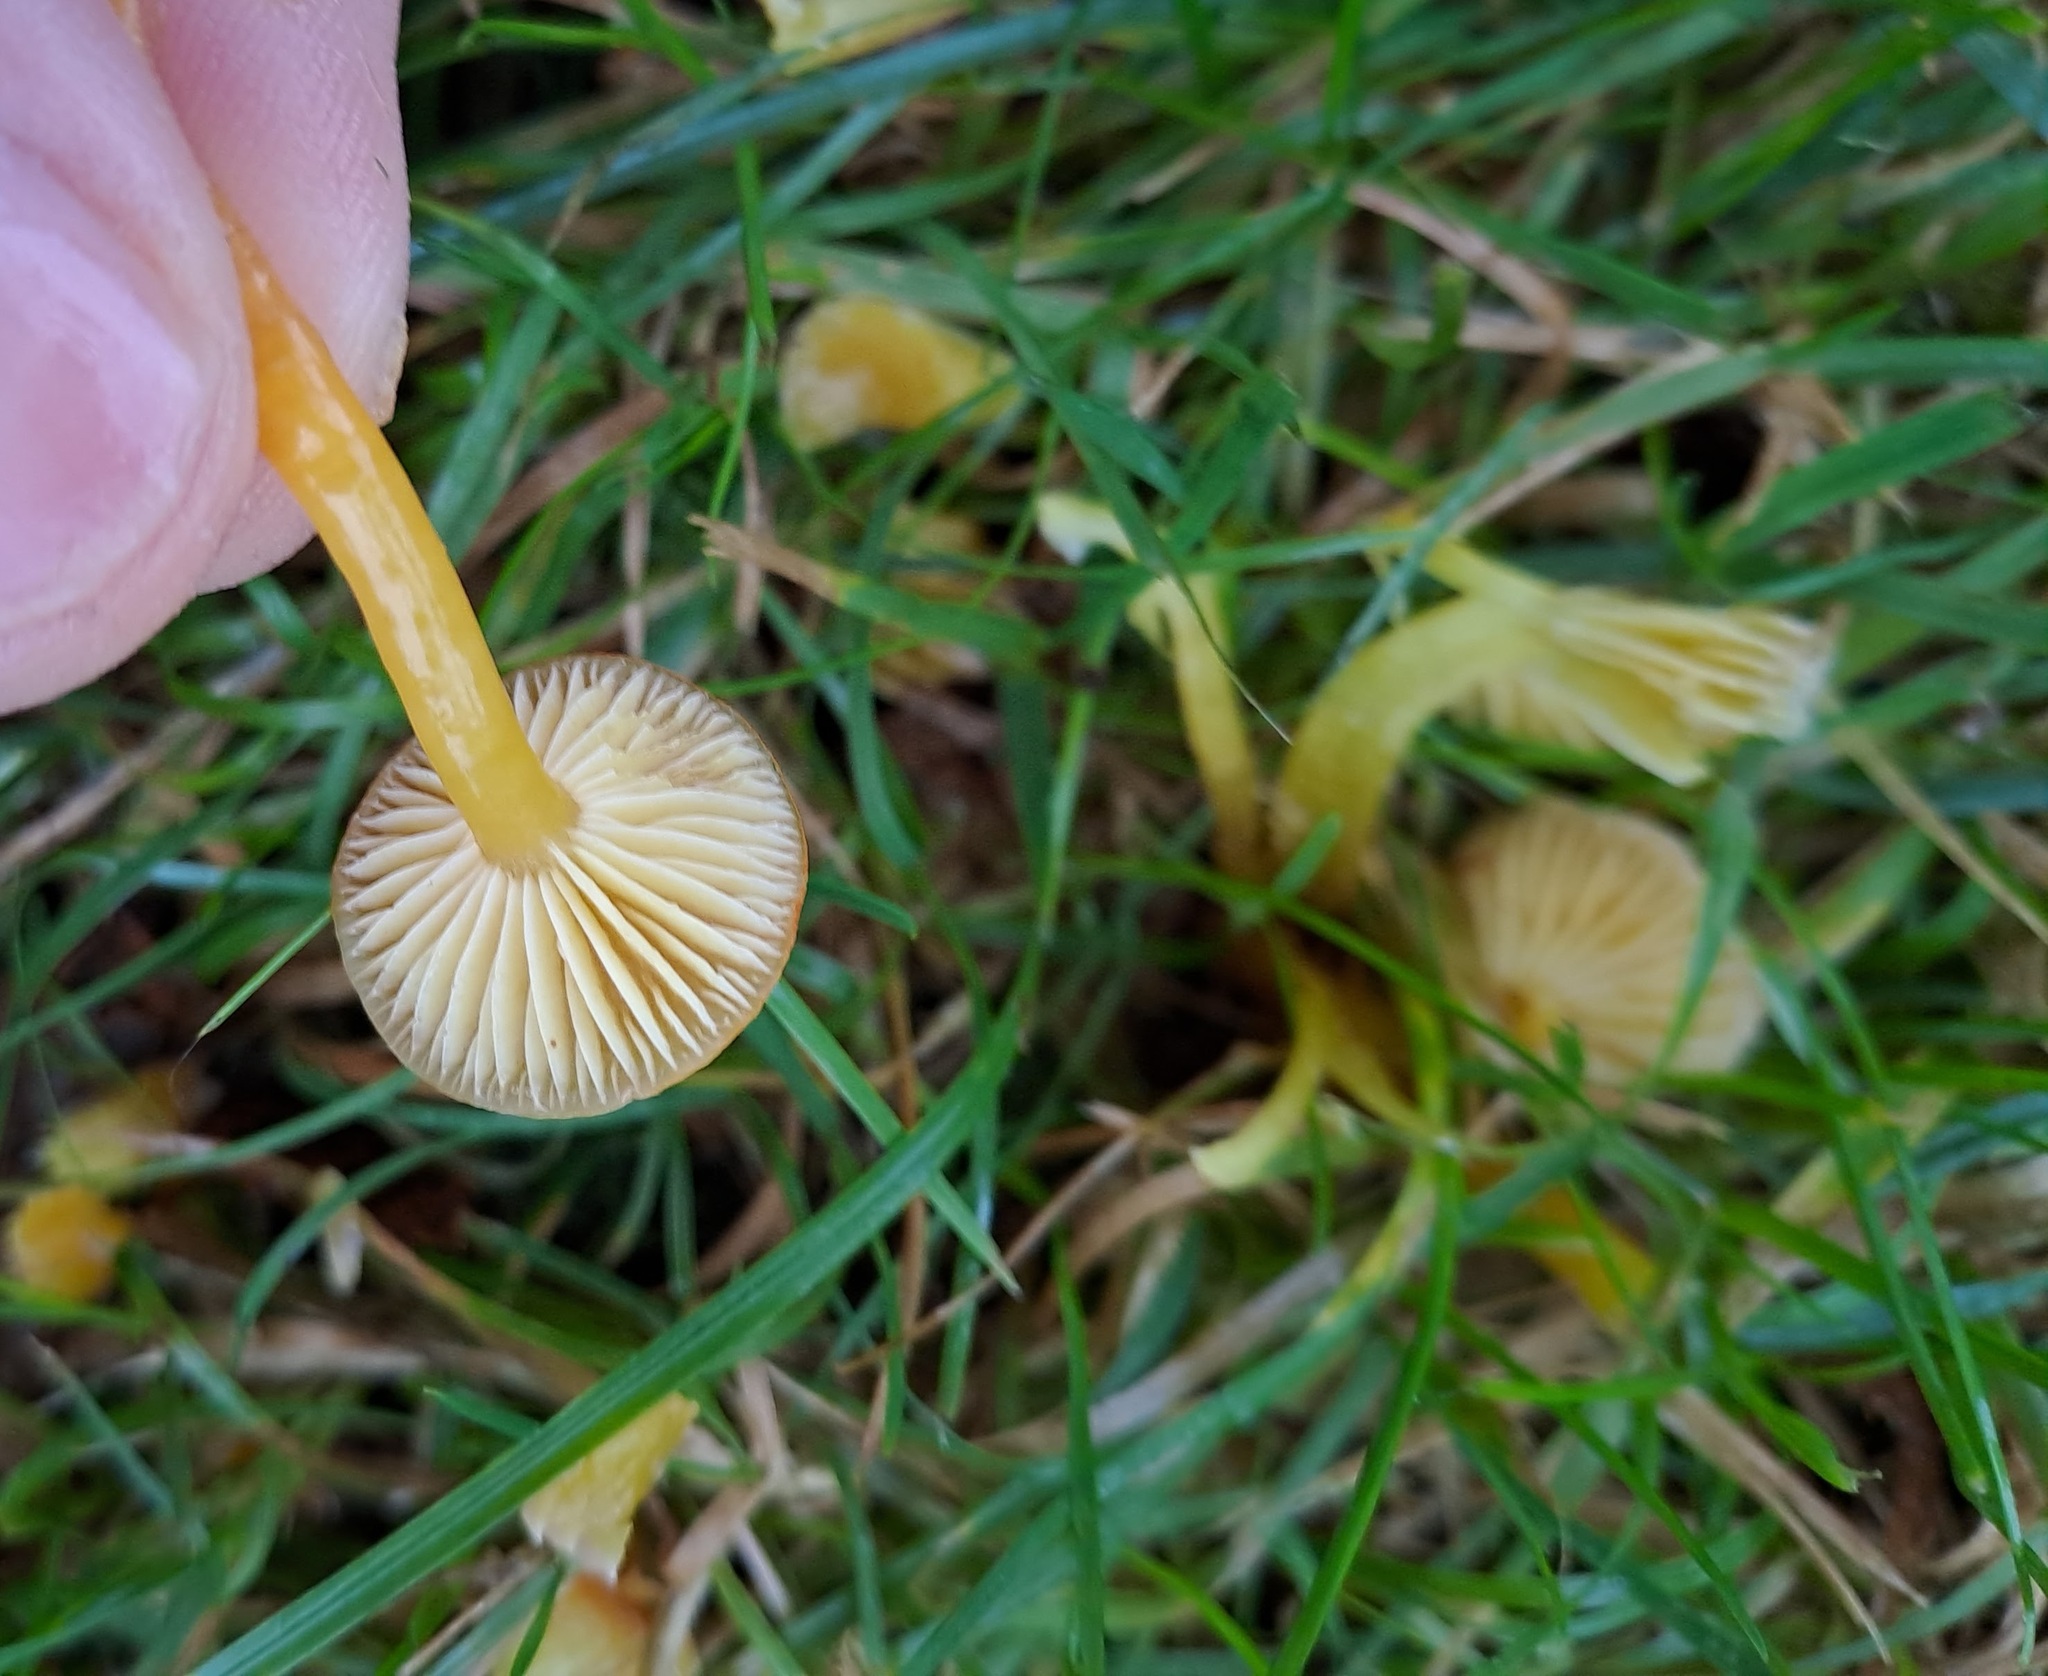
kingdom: Fungi
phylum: Basidiomycota
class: Agaricomycetes
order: Agaricales
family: Hygrophoraceae
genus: Hygrocybe
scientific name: Hygrocybe ceracea
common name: Butter waxcap
